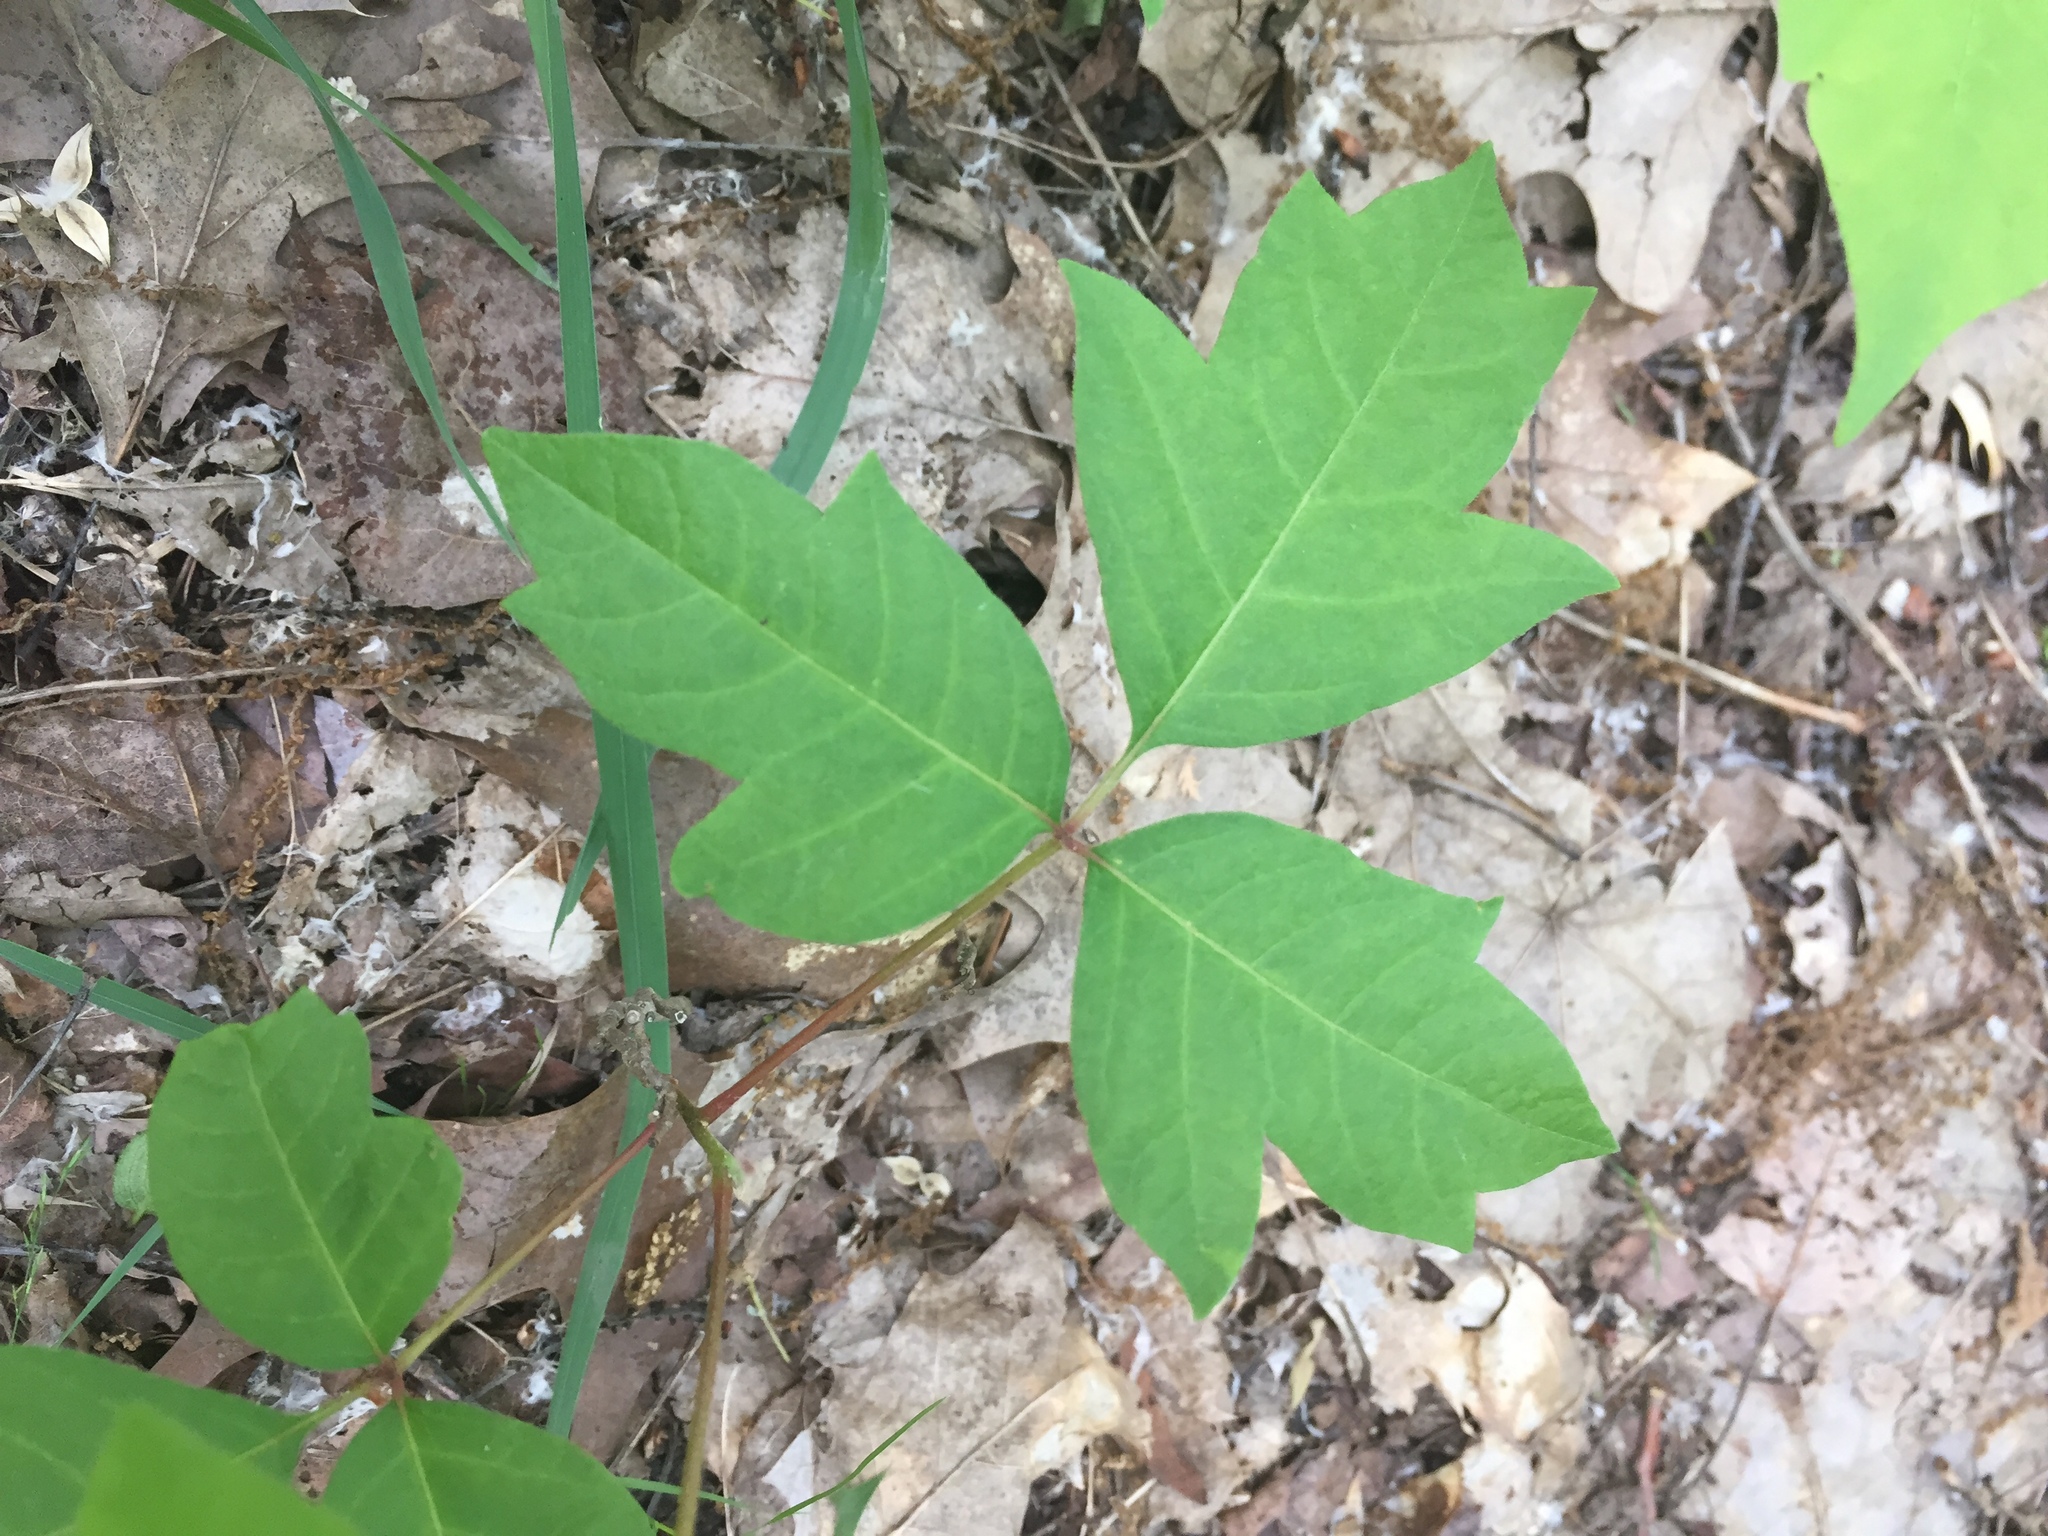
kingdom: Plantae
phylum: Tracheophyta
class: Magnoliopsida
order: Sapindales
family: Anacardiaceae
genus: Toxicodendron
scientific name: Toxicodendron radicans
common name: Poison ivy
